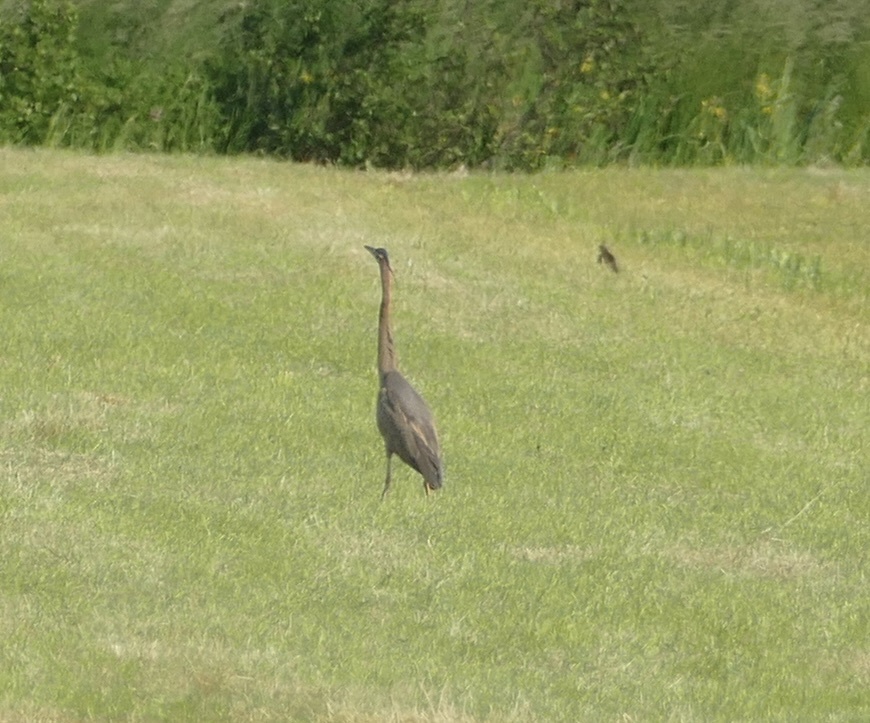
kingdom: Animalia
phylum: Chordata
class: Aves
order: Pelecaniformes
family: Ardeidae
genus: Ardea
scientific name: Ardea purpurea
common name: Purple heron
